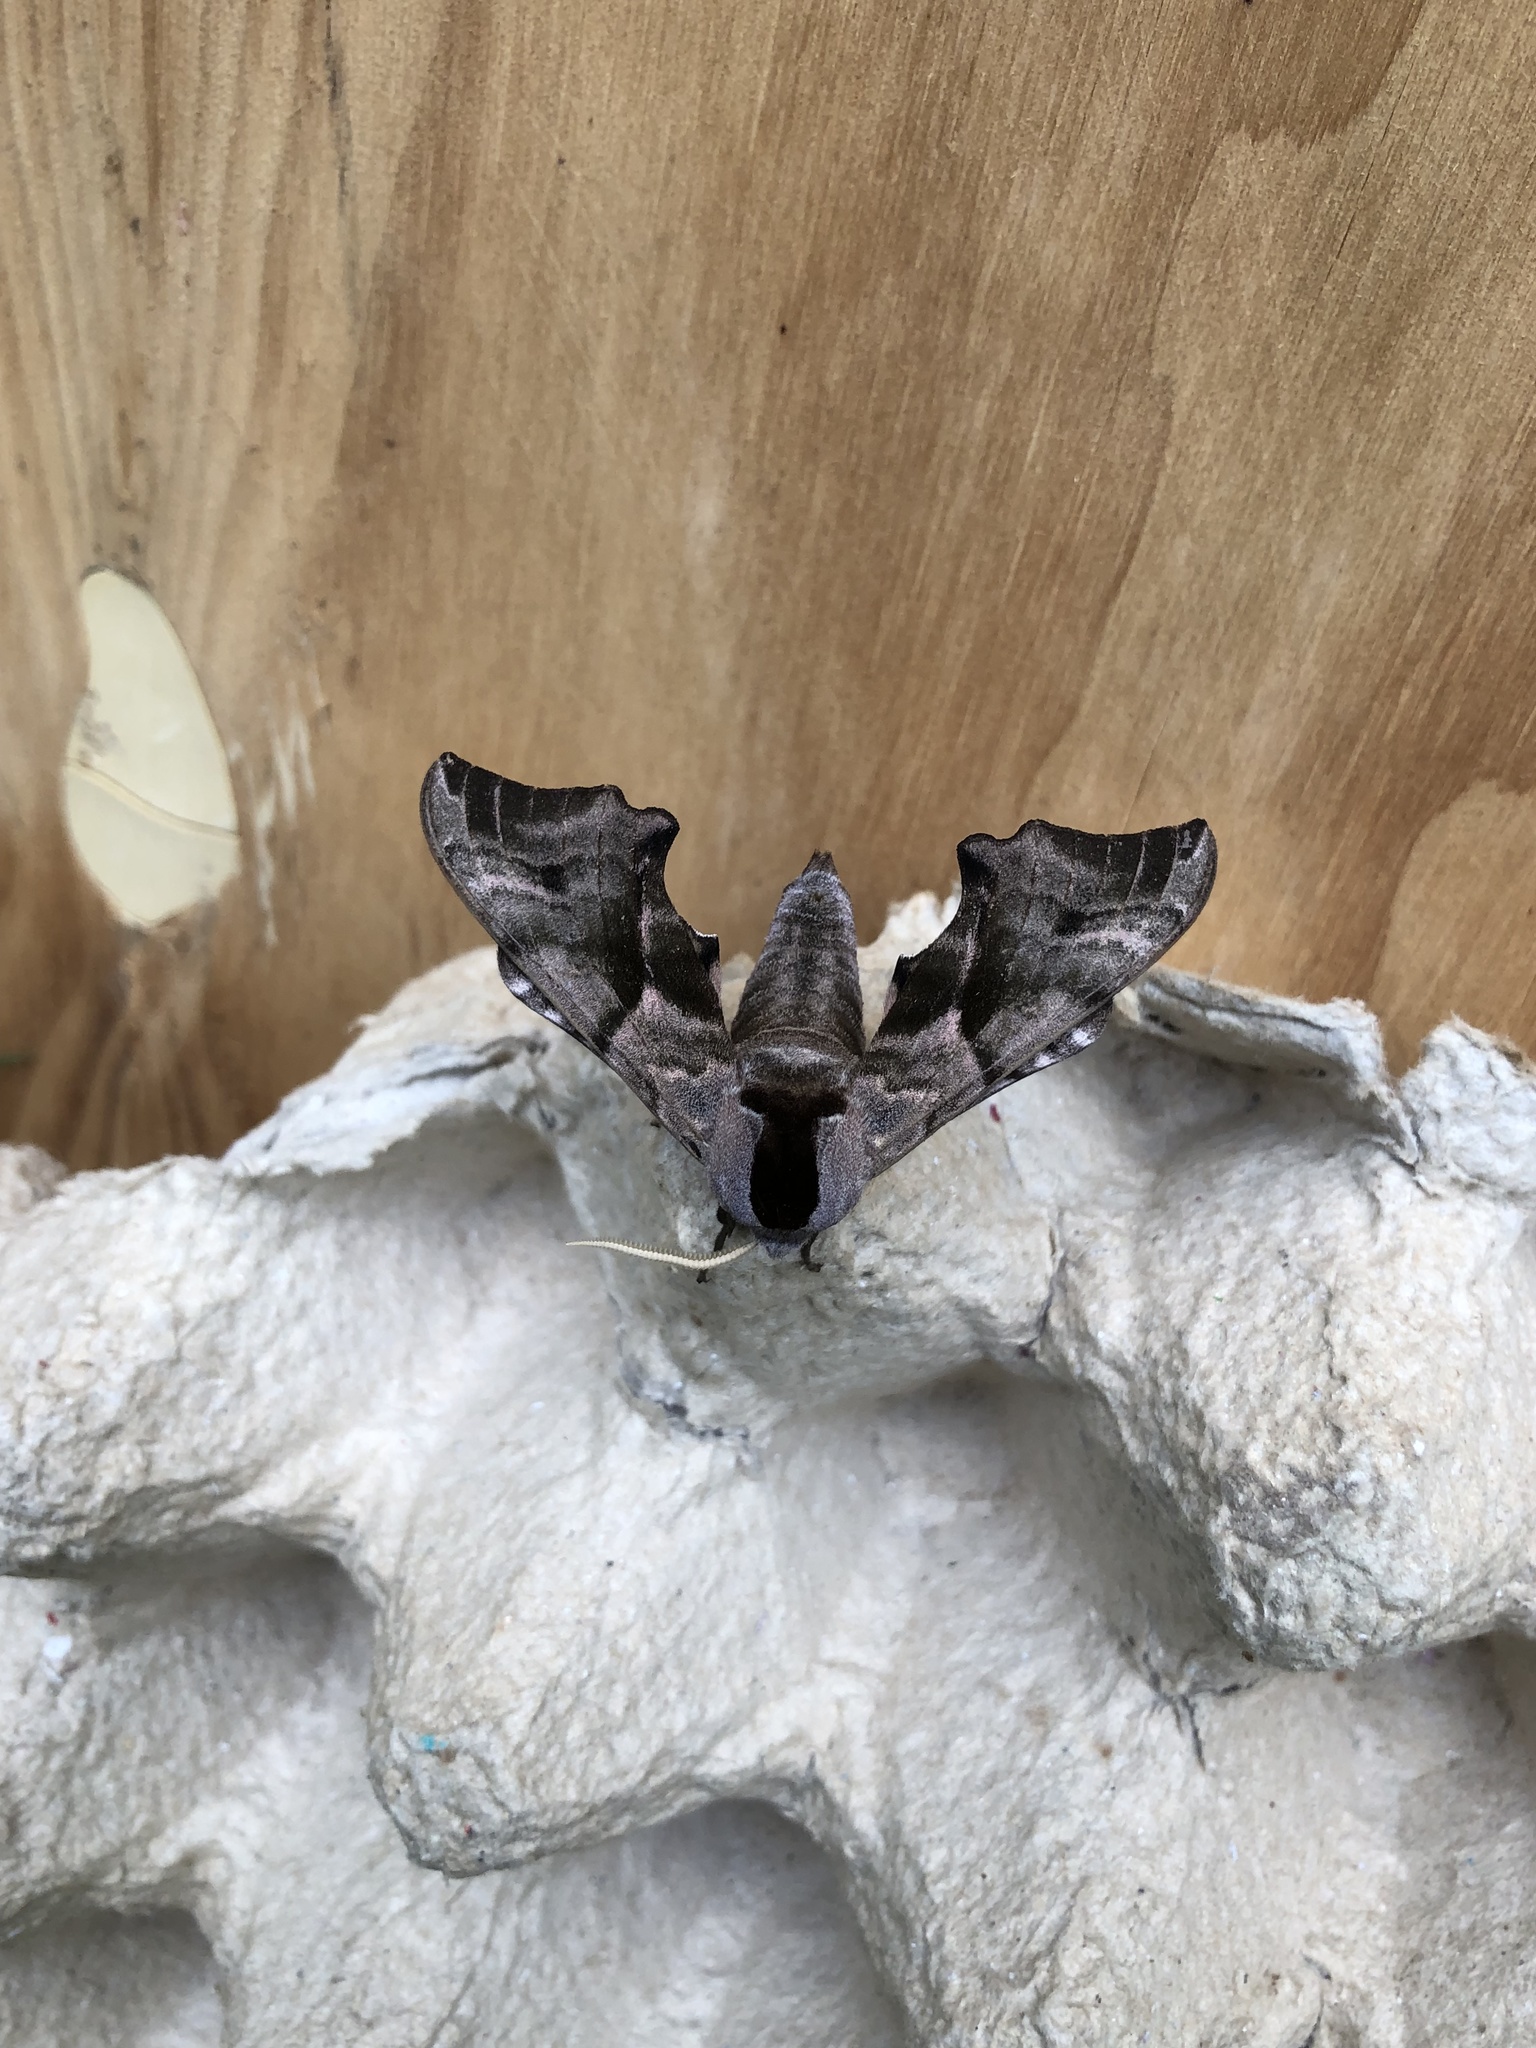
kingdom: Animalia
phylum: Arthropoda
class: Insecta
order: Lepidoptera
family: Sphingidae
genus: Smerinthus
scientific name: Smerinthus ocellata
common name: Eyed hawk-moth
